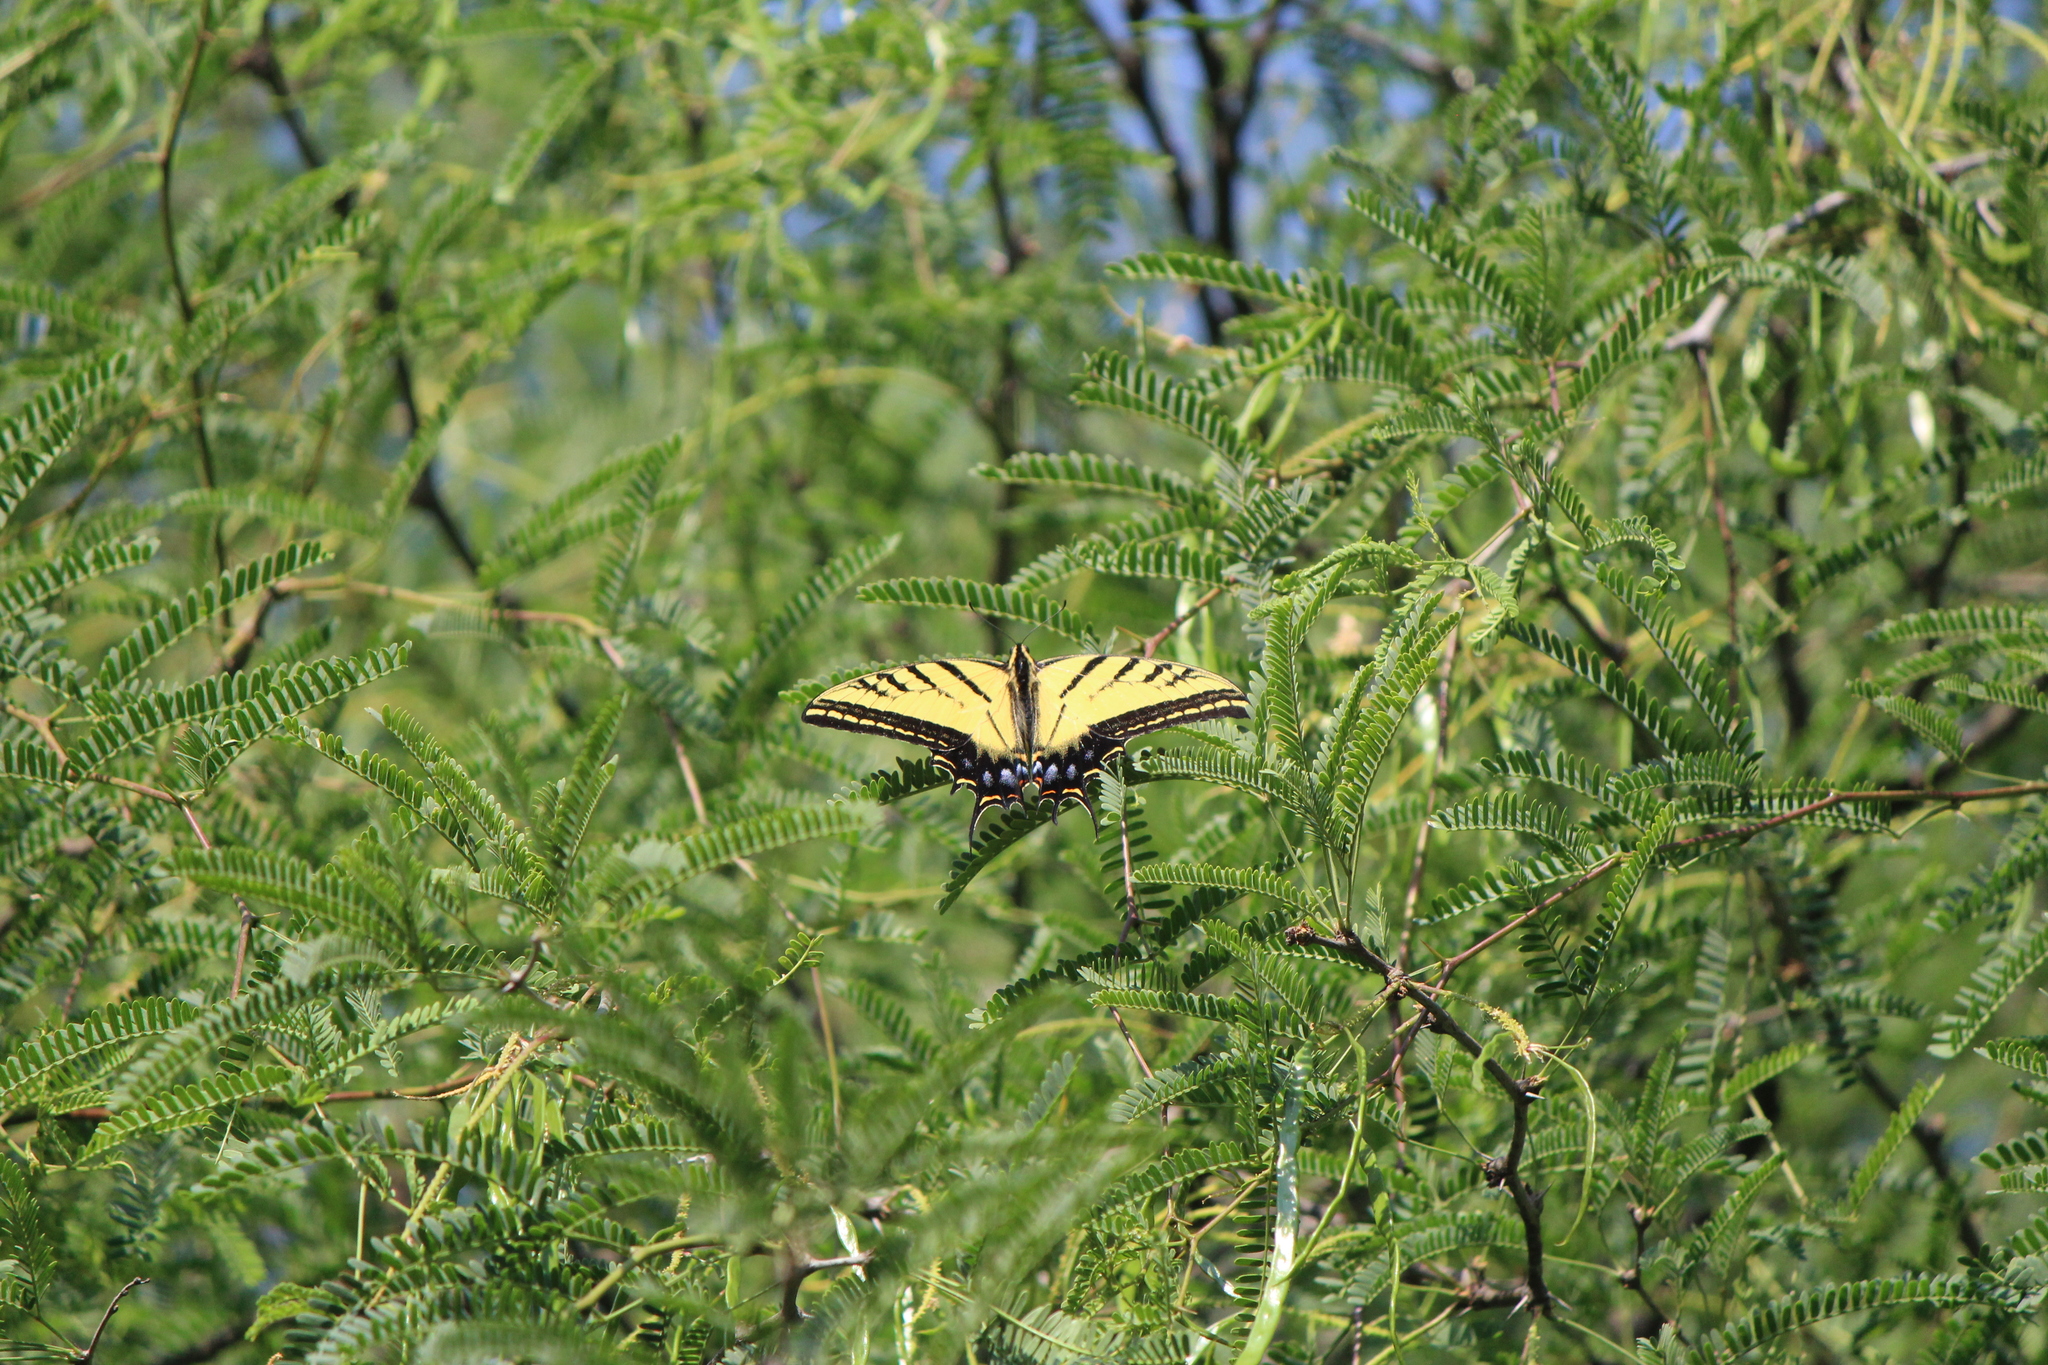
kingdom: Animalia
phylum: Arthropoda
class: Insecta
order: Lepidoptera
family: Papilionidae
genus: Papilio
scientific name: Papilio multicaudata
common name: Two-tailed tiger swallowtail
